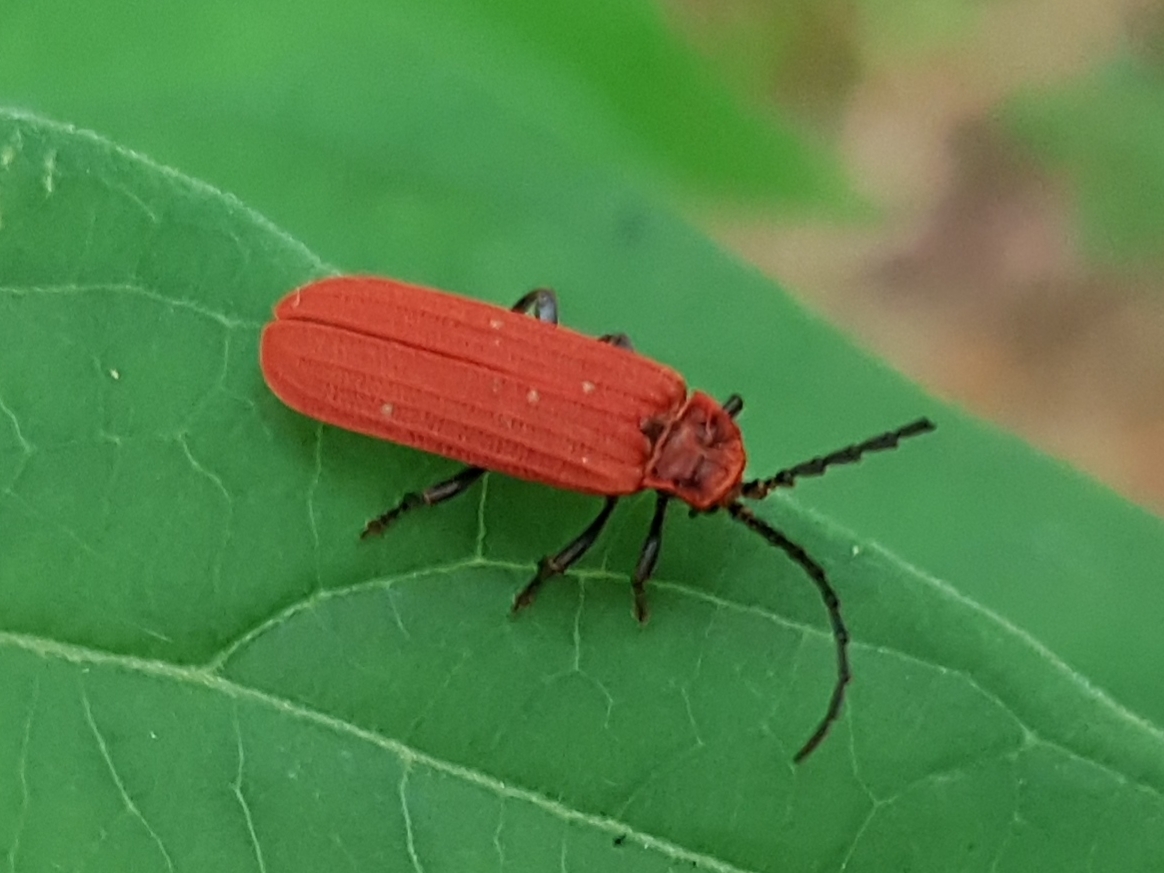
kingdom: Animalia
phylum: Arthropoda
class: Insecta
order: Coleoptera
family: Lycidae
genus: Lopheros
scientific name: Lopheros rubens
